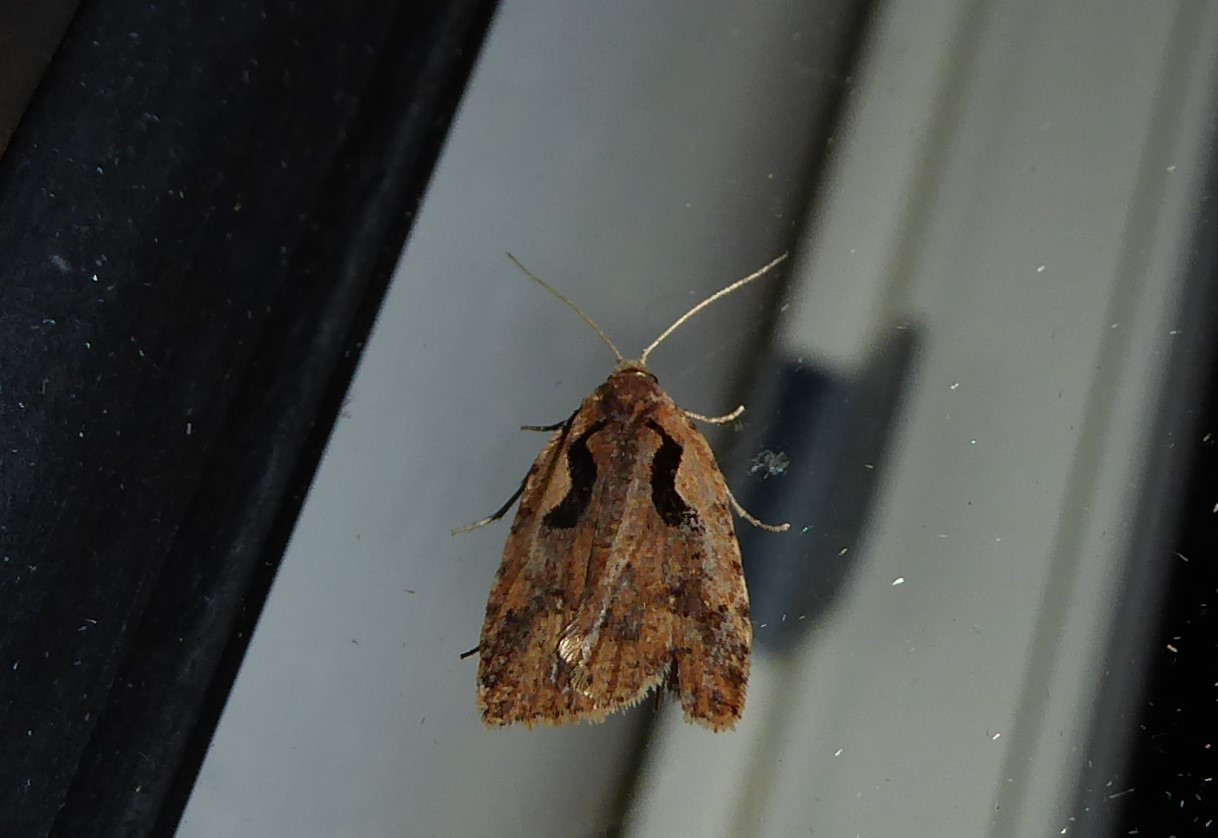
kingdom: Animalia
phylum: Arthropoda
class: Insecta
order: Lepidoptera
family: Tortricidae
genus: Cnephasia
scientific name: Cnephasia jactatana
